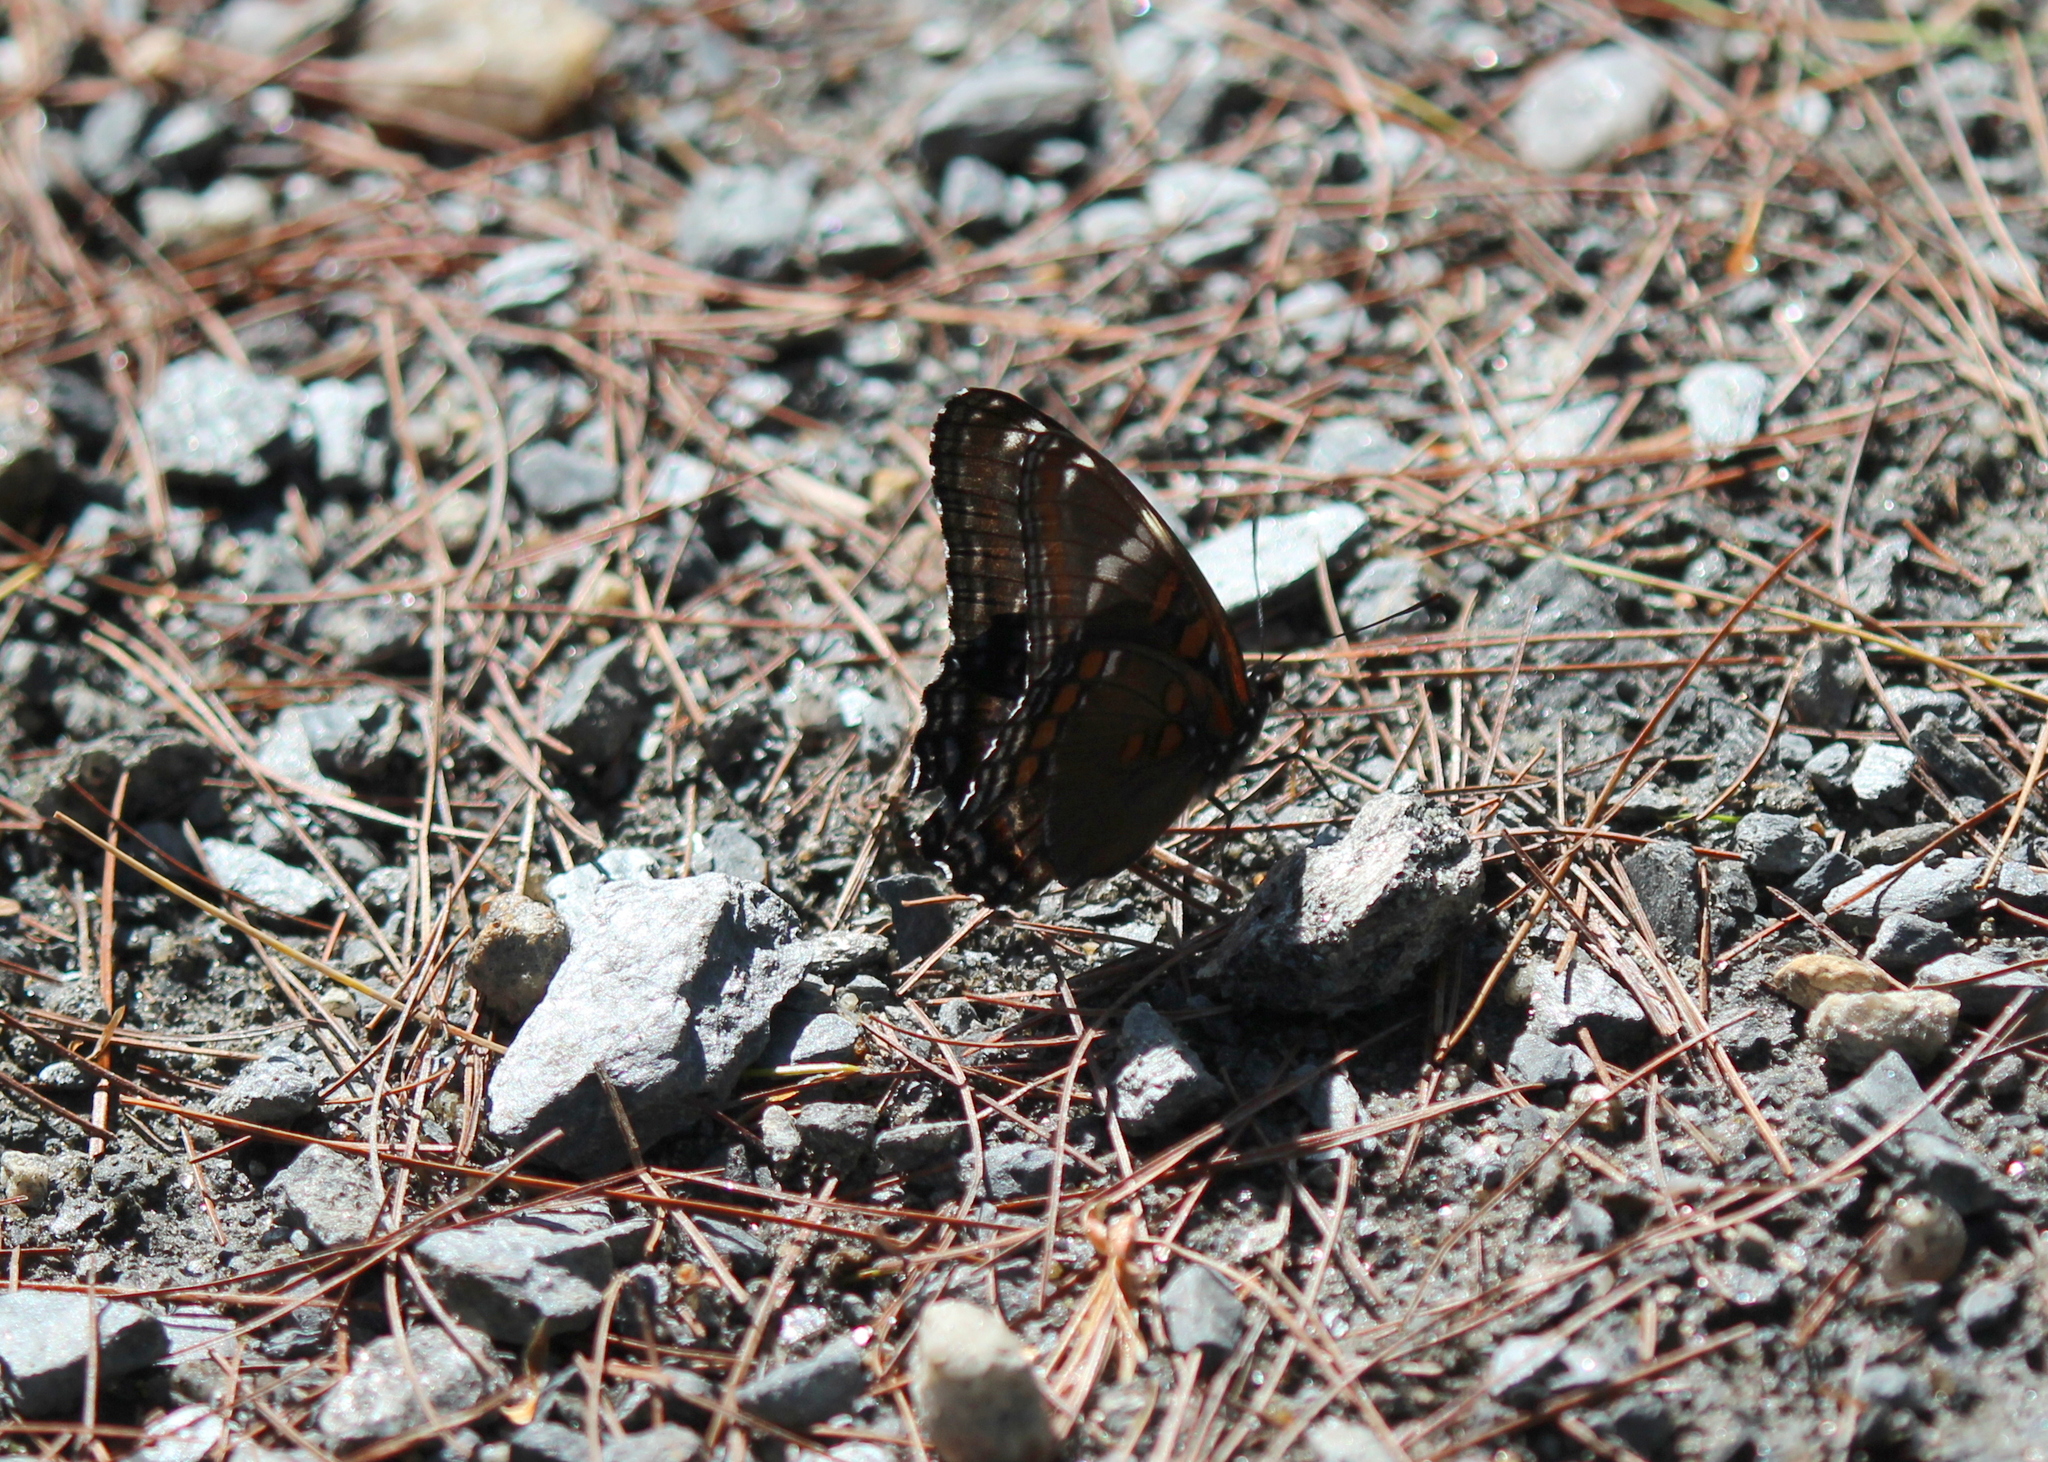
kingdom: Animalia
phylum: Arthropoda
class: Insecta
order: Lepidoptera
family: Nymphalidae
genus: Limenitis
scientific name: Limenitis
